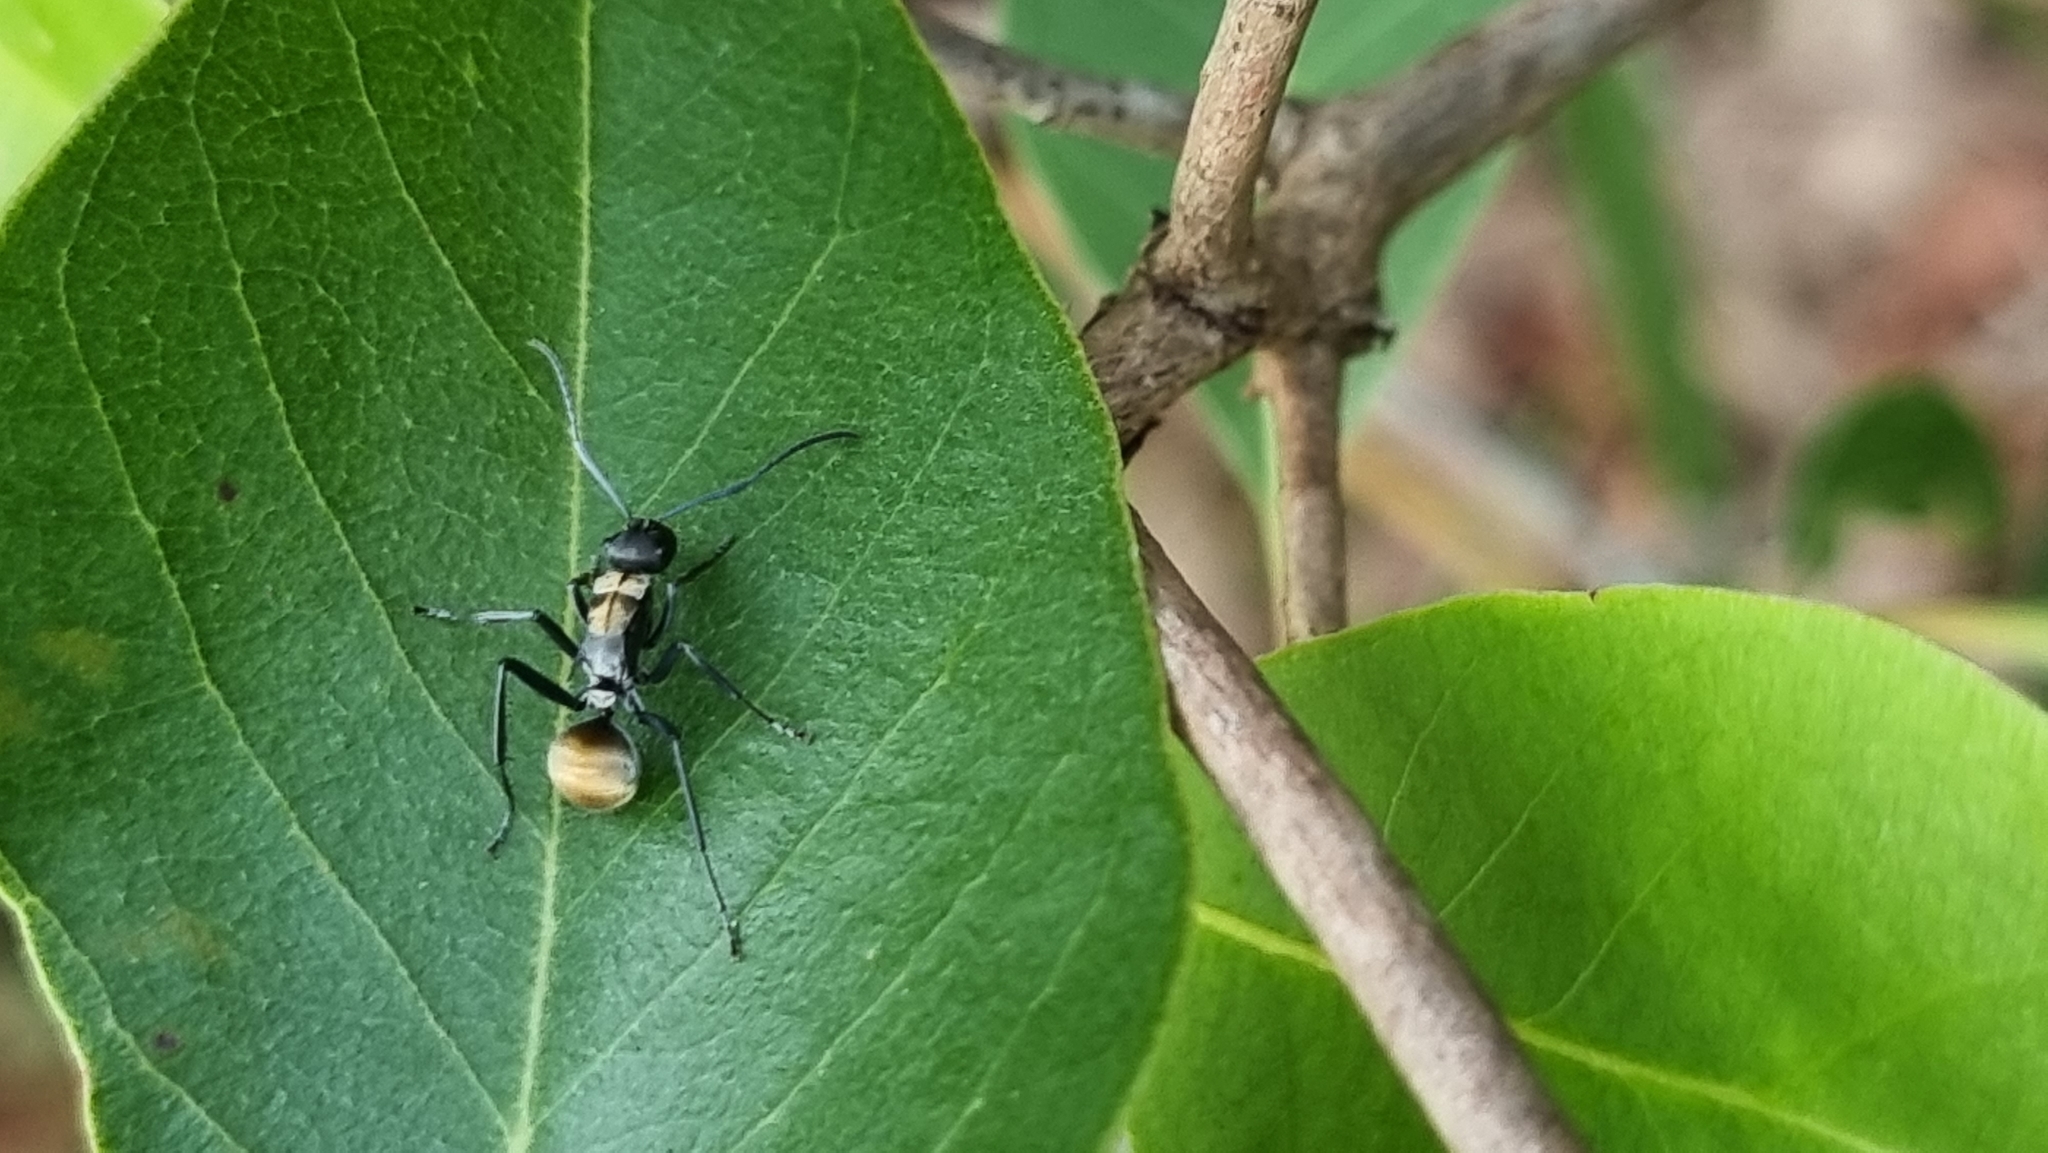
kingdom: Animalia
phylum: Arthropoda
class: Insecta
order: Hymenoptera
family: Formicidae
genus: Polyrhachis
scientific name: Polyrhachis ammon
